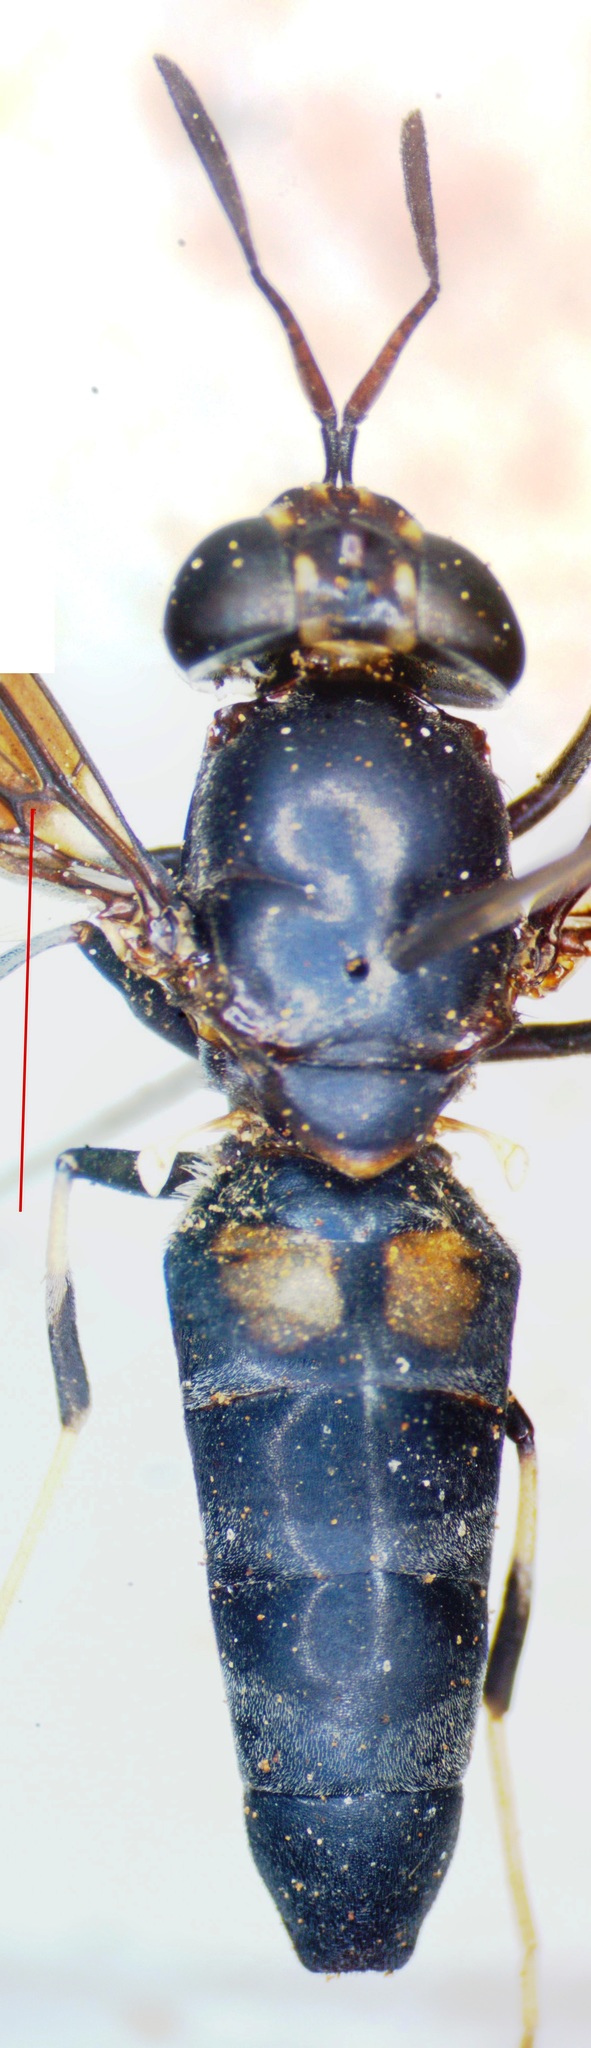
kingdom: Animalia
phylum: Arthropoda
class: Insecta
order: Diptera
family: Stratiomyidae
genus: Hermetia
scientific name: Hermetia illucens
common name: Black soldier fly
